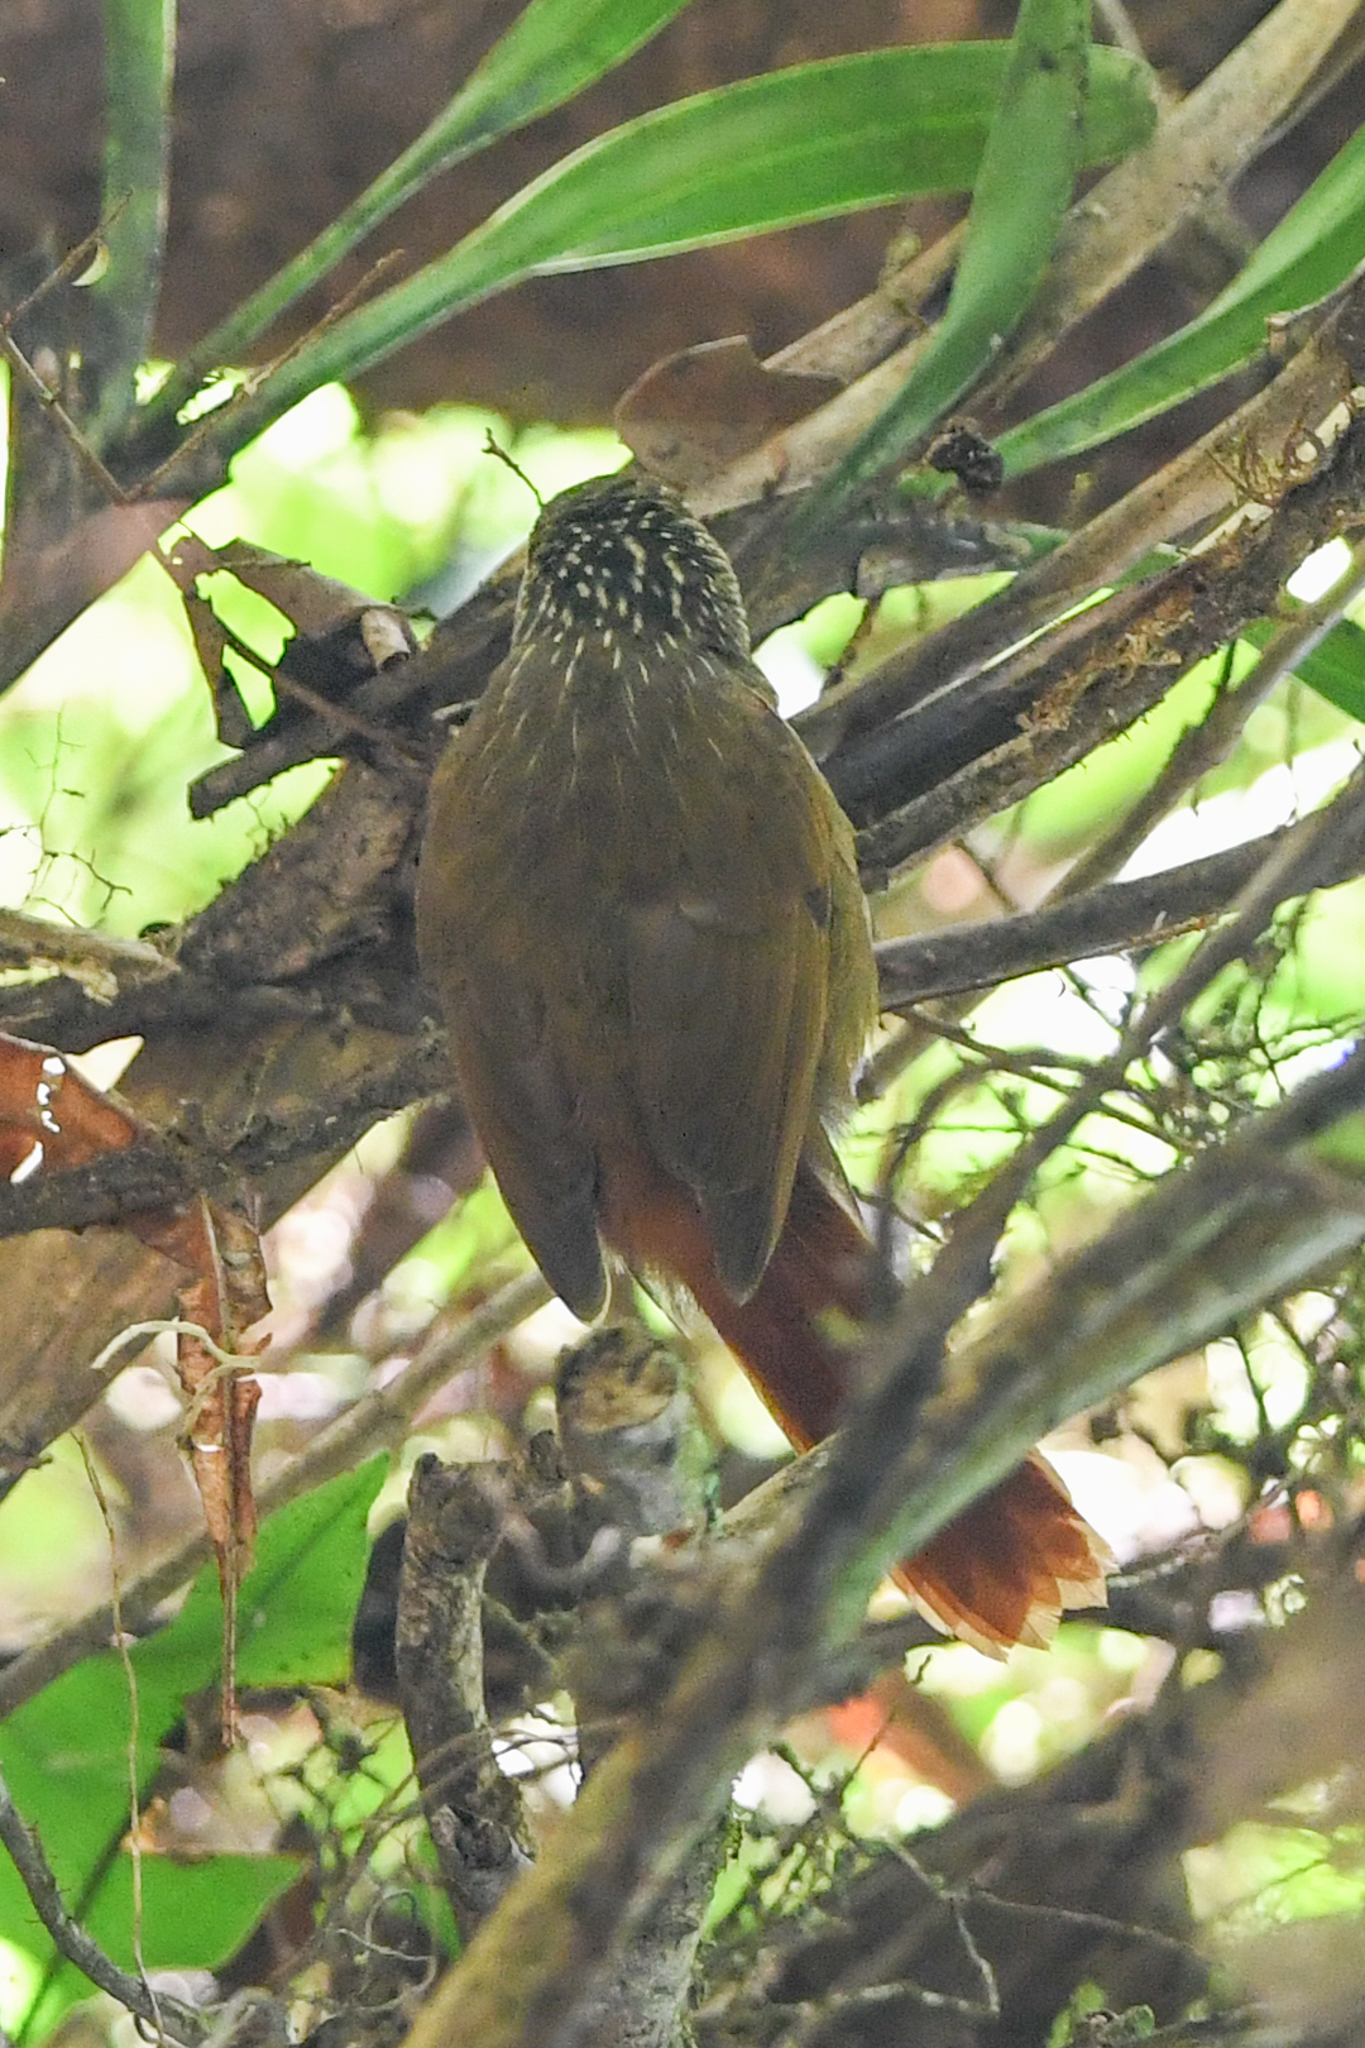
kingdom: Animalia
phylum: Chordata
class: Aves
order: Passeriformes
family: Furnariidae
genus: Syndactyla
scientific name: Syndactyla subalaris
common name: Lineated foliage-gleaner
